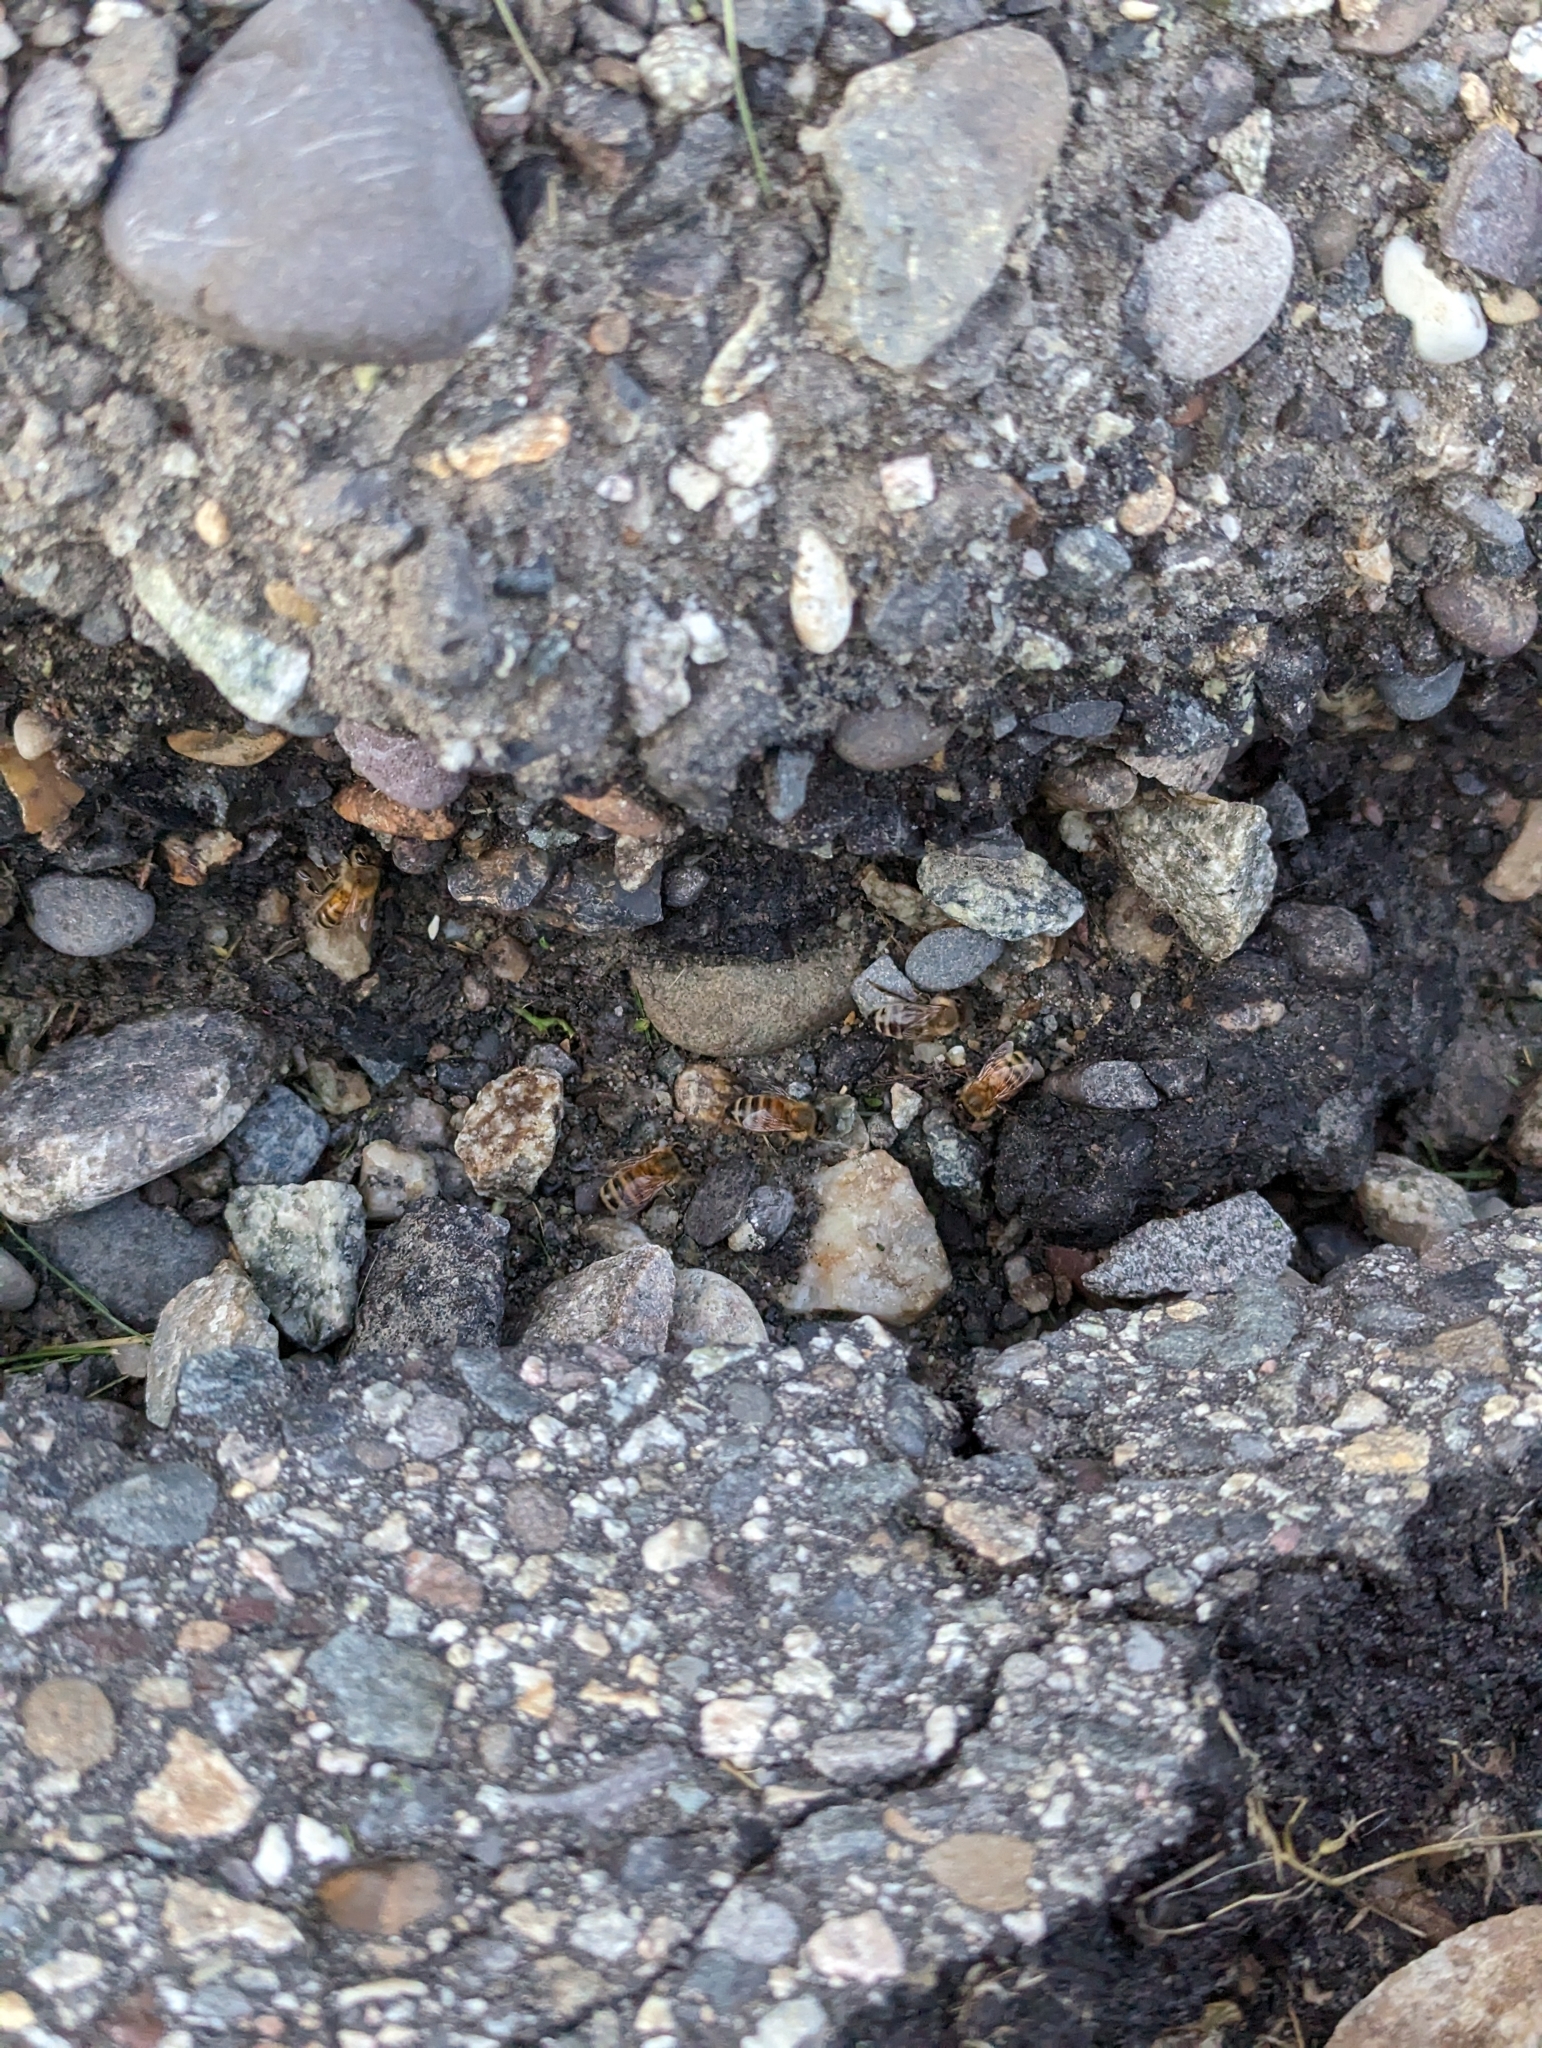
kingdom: Animalia
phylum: Arthropoda
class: Insecta
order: Hymenoptera
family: Apidae
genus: Apis
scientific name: Apis mellifera
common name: Honey bee
